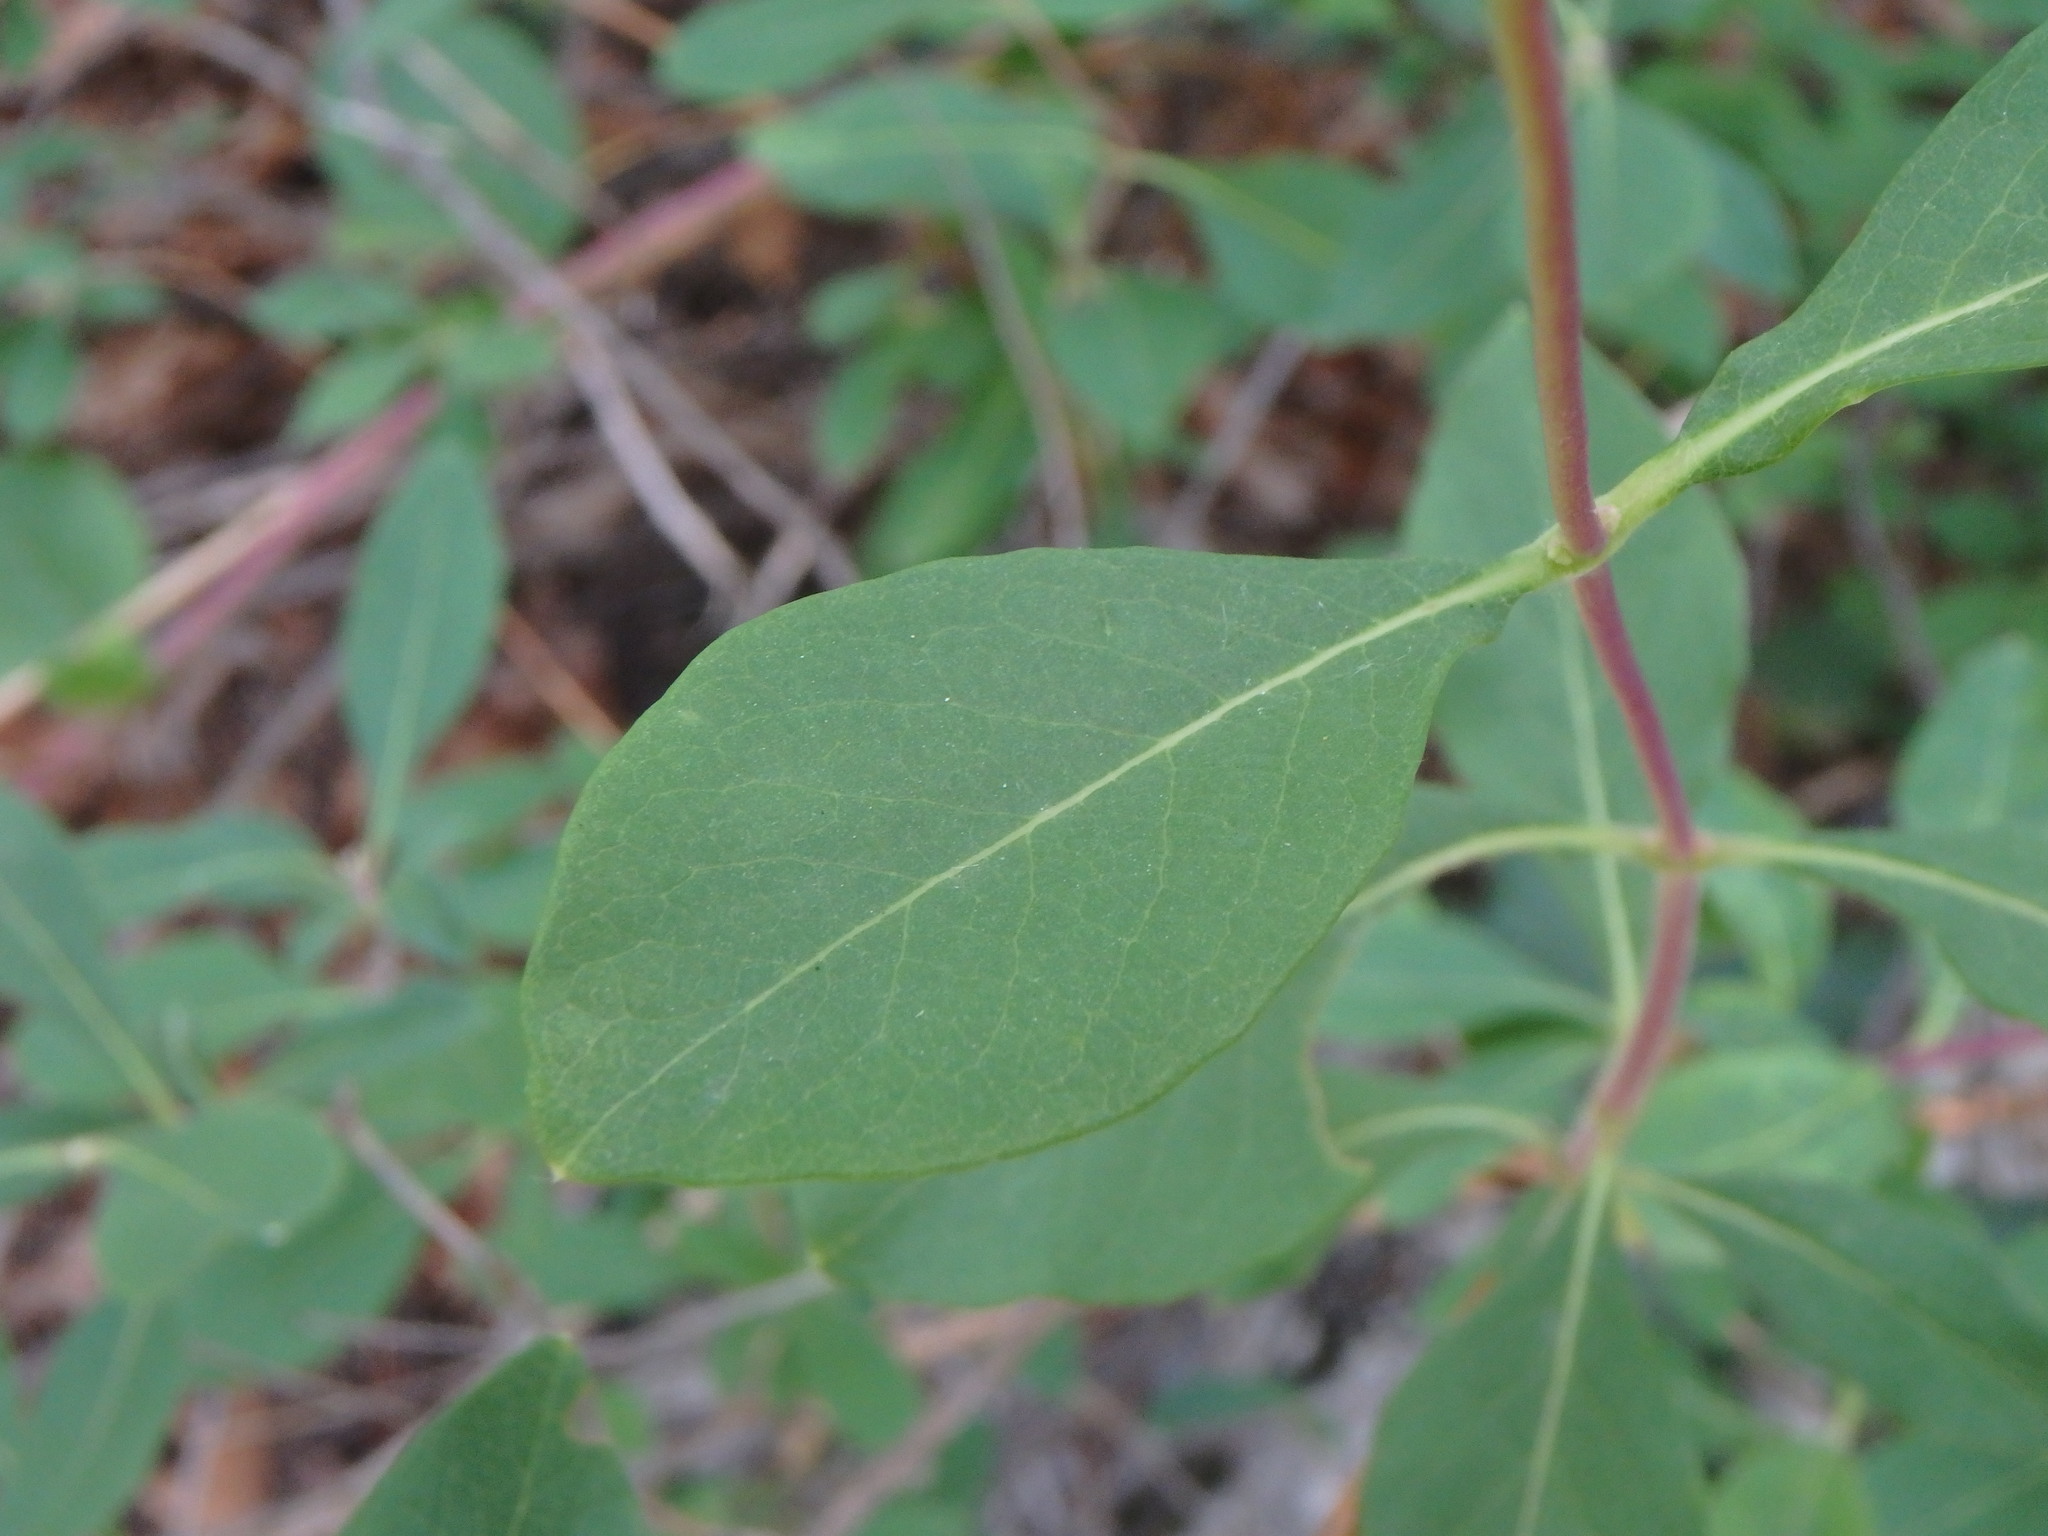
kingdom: Plantae
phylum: Tracheophyta
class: Magnoliopsida
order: Dipsacales
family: Caprifoliaceae
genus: Lonicera
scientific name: Lonicera etrusca
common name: Etruscan honeysuckle
